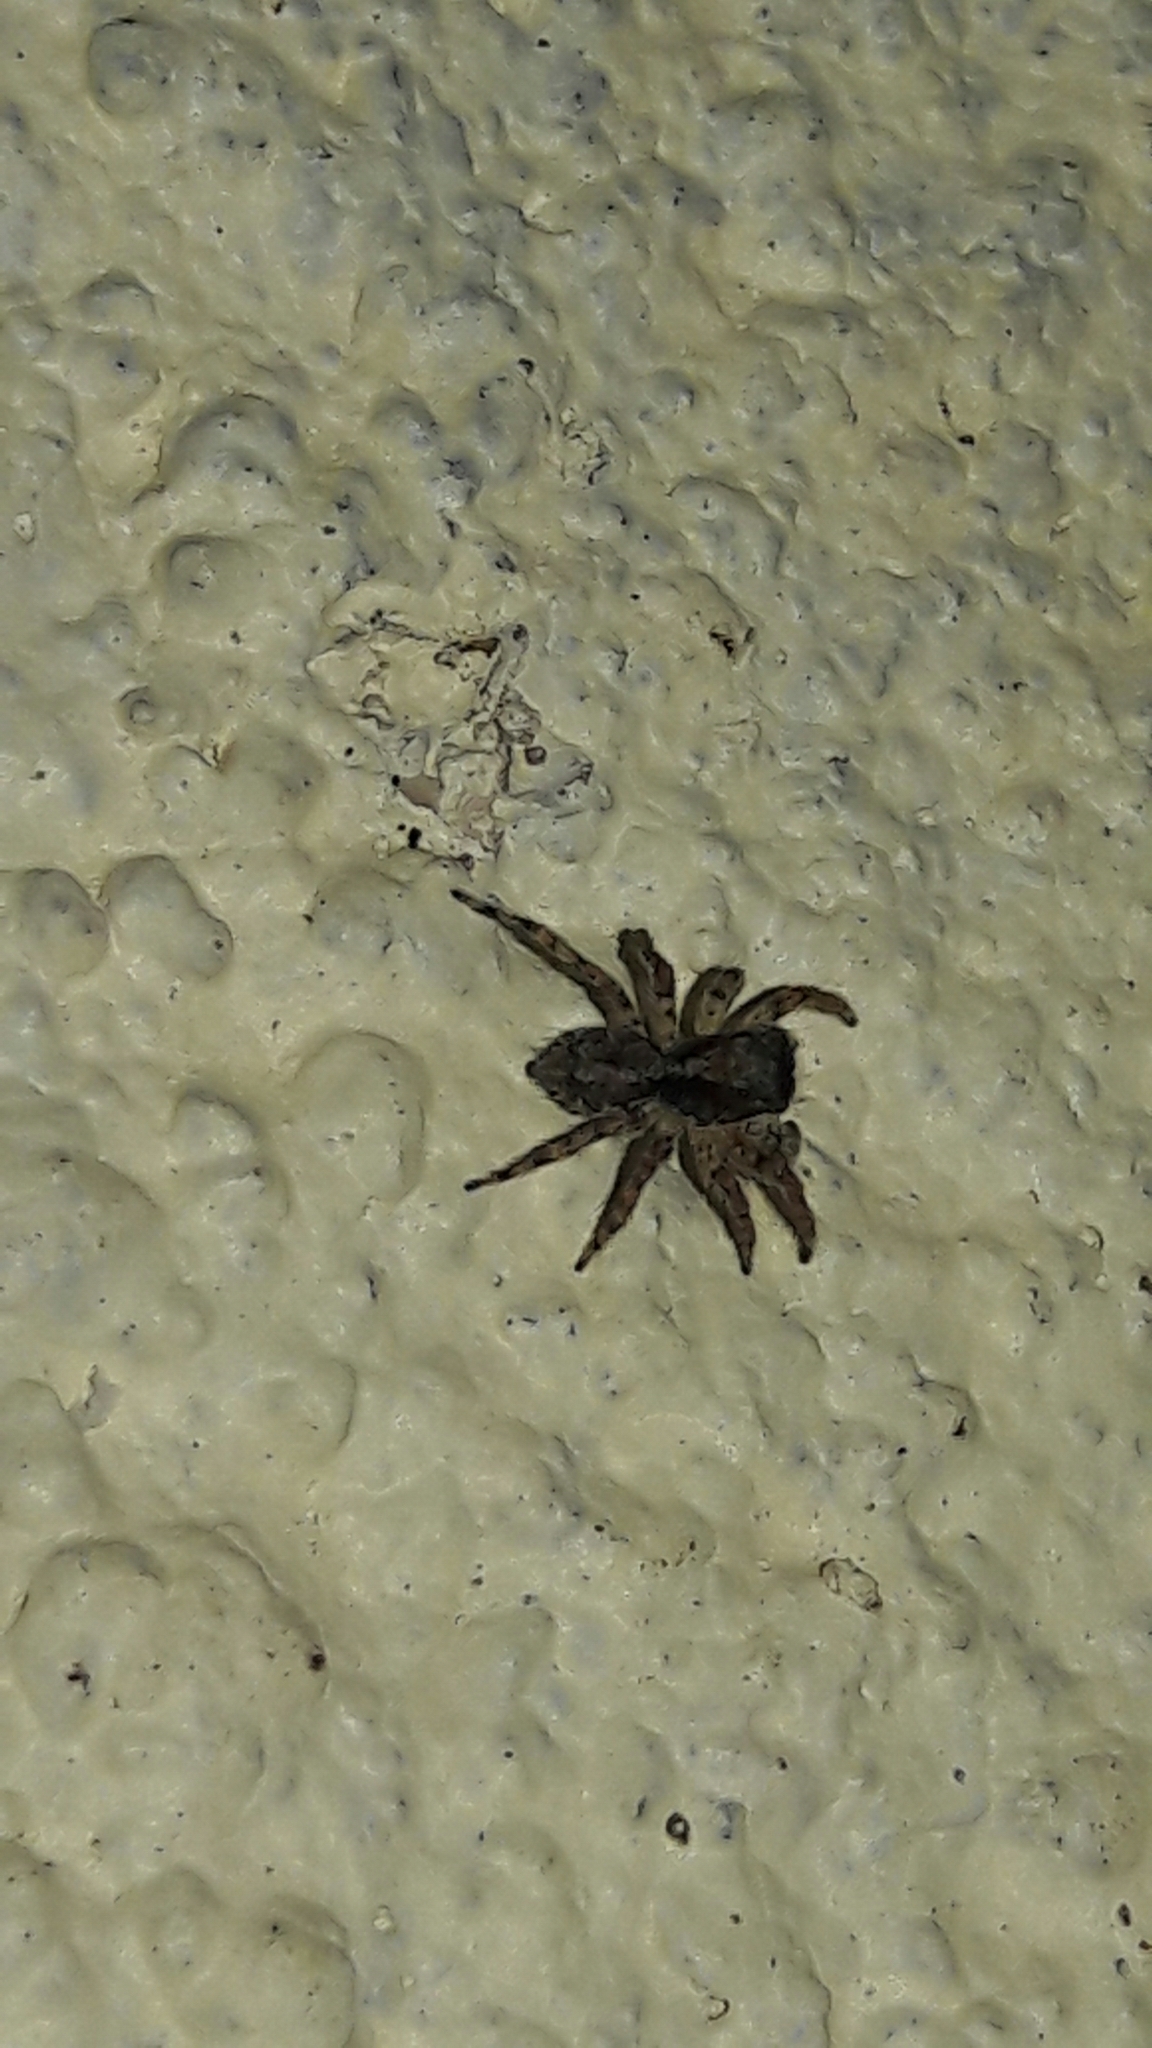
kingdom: Animalia
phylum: Arthropoda
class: Arachnida
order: Araneae
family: Salticidae
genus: Marma
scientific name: Marma nigritarsis
